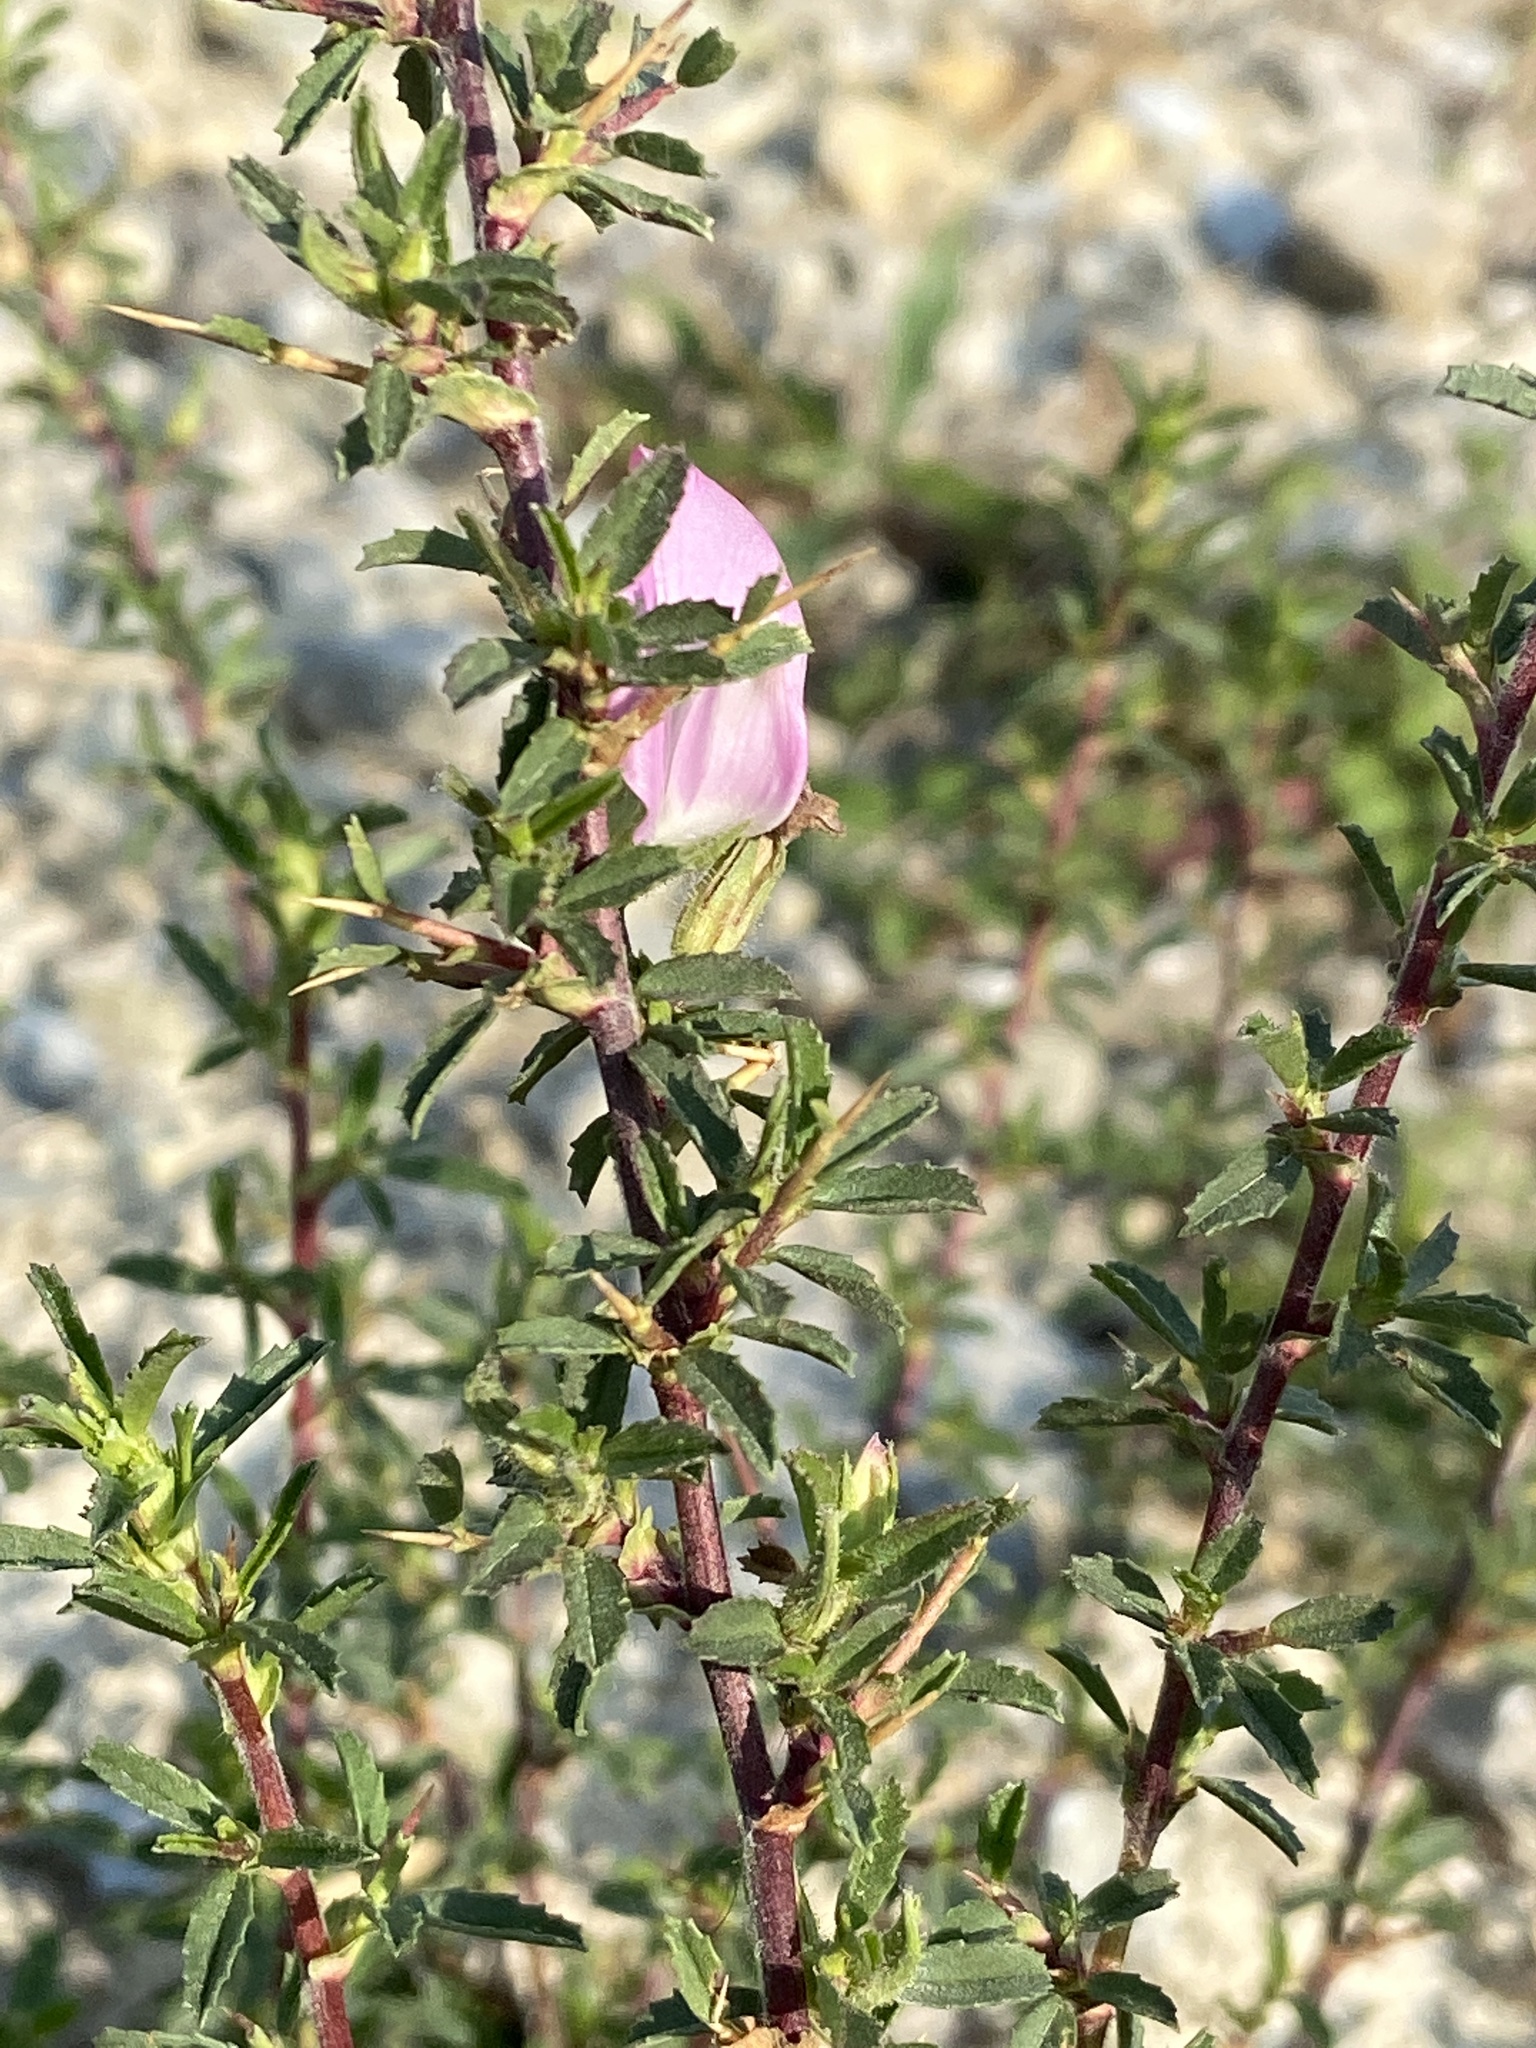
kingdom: Plantae
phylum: Tracheophyta
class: Magnoliopsida
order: Fabales
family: Fabaceae
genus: Ononis
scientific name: Ononis spinosa
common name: Spiny restharrow
